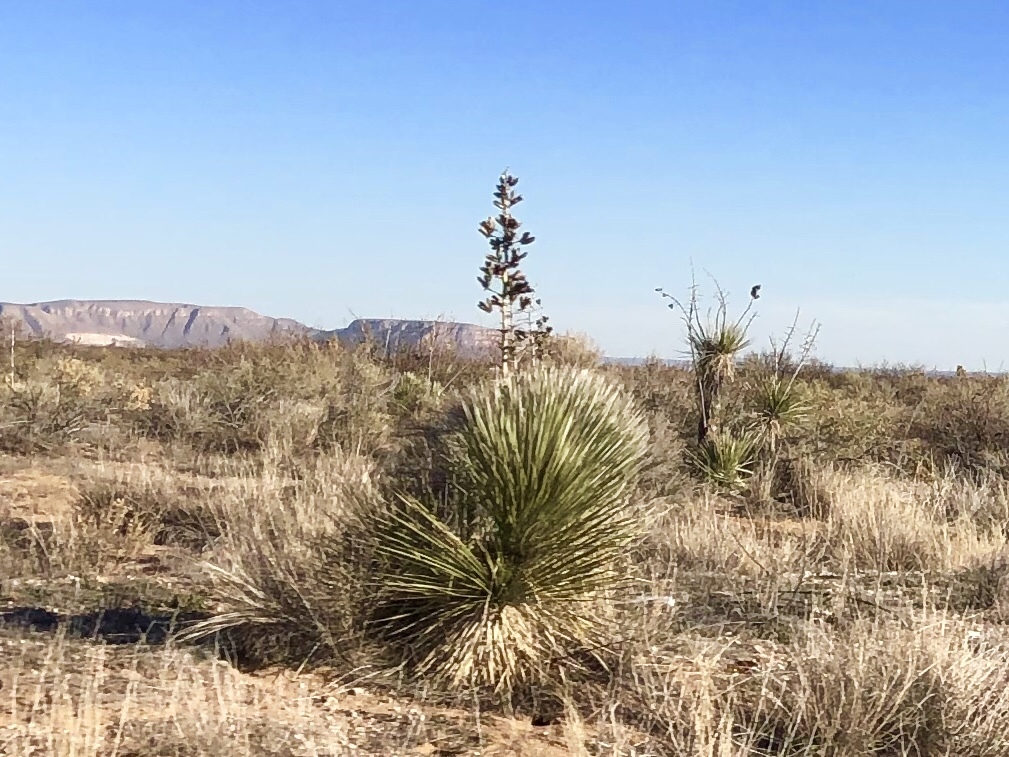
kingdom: Plantae
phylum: Tracheophyta
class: Liliopsida
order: Asparagales
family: Asparagaceae
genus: Yucca
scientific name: Yucca elata
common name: Palmella
